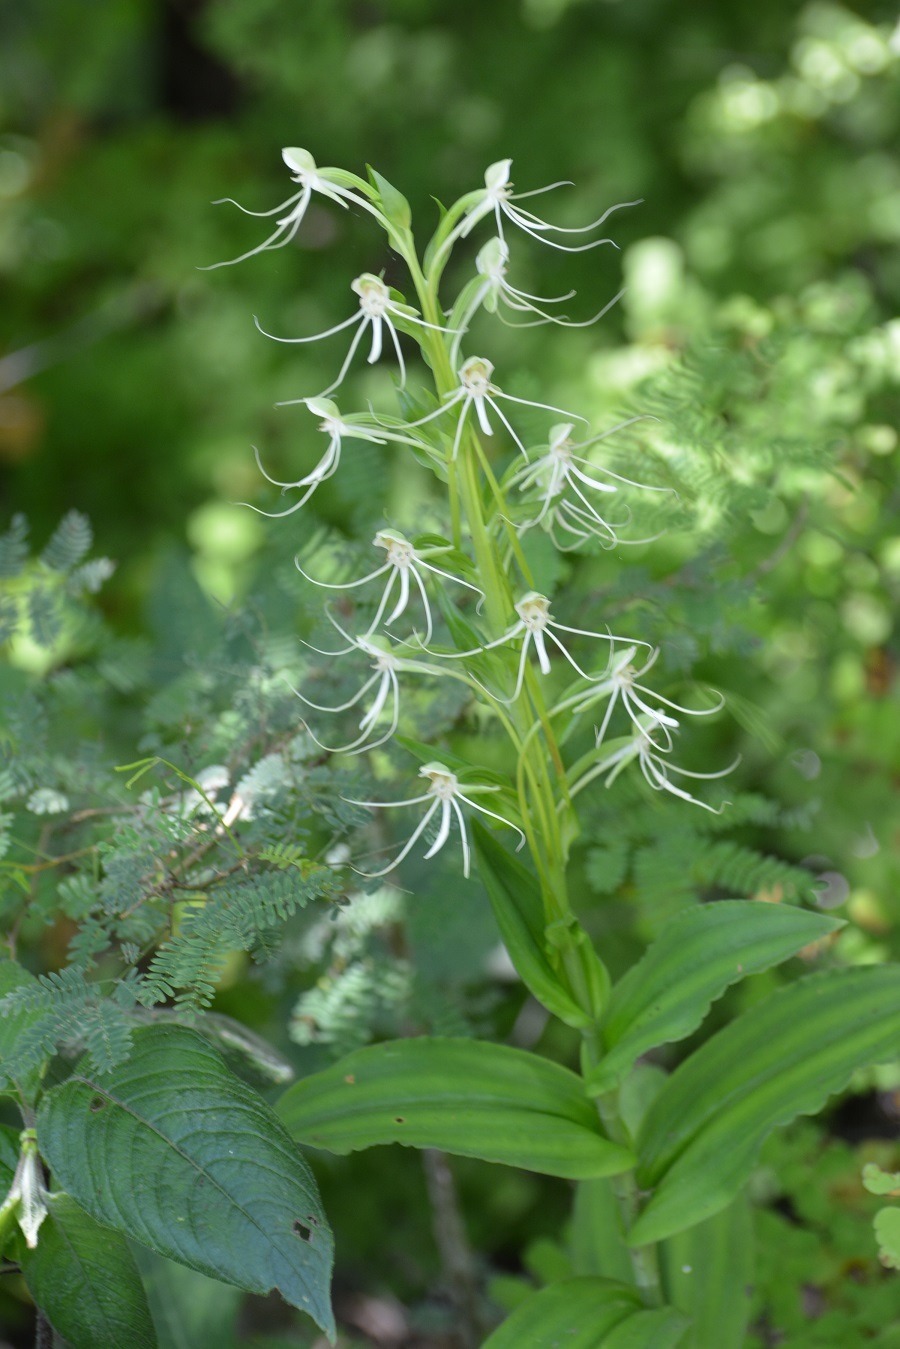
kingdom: Plantae
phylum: Tracheophyta
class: Liliopsida
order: Asparagales
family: Orchidaceae
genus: Habenaria
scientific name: Habenaria lucaecapensis
